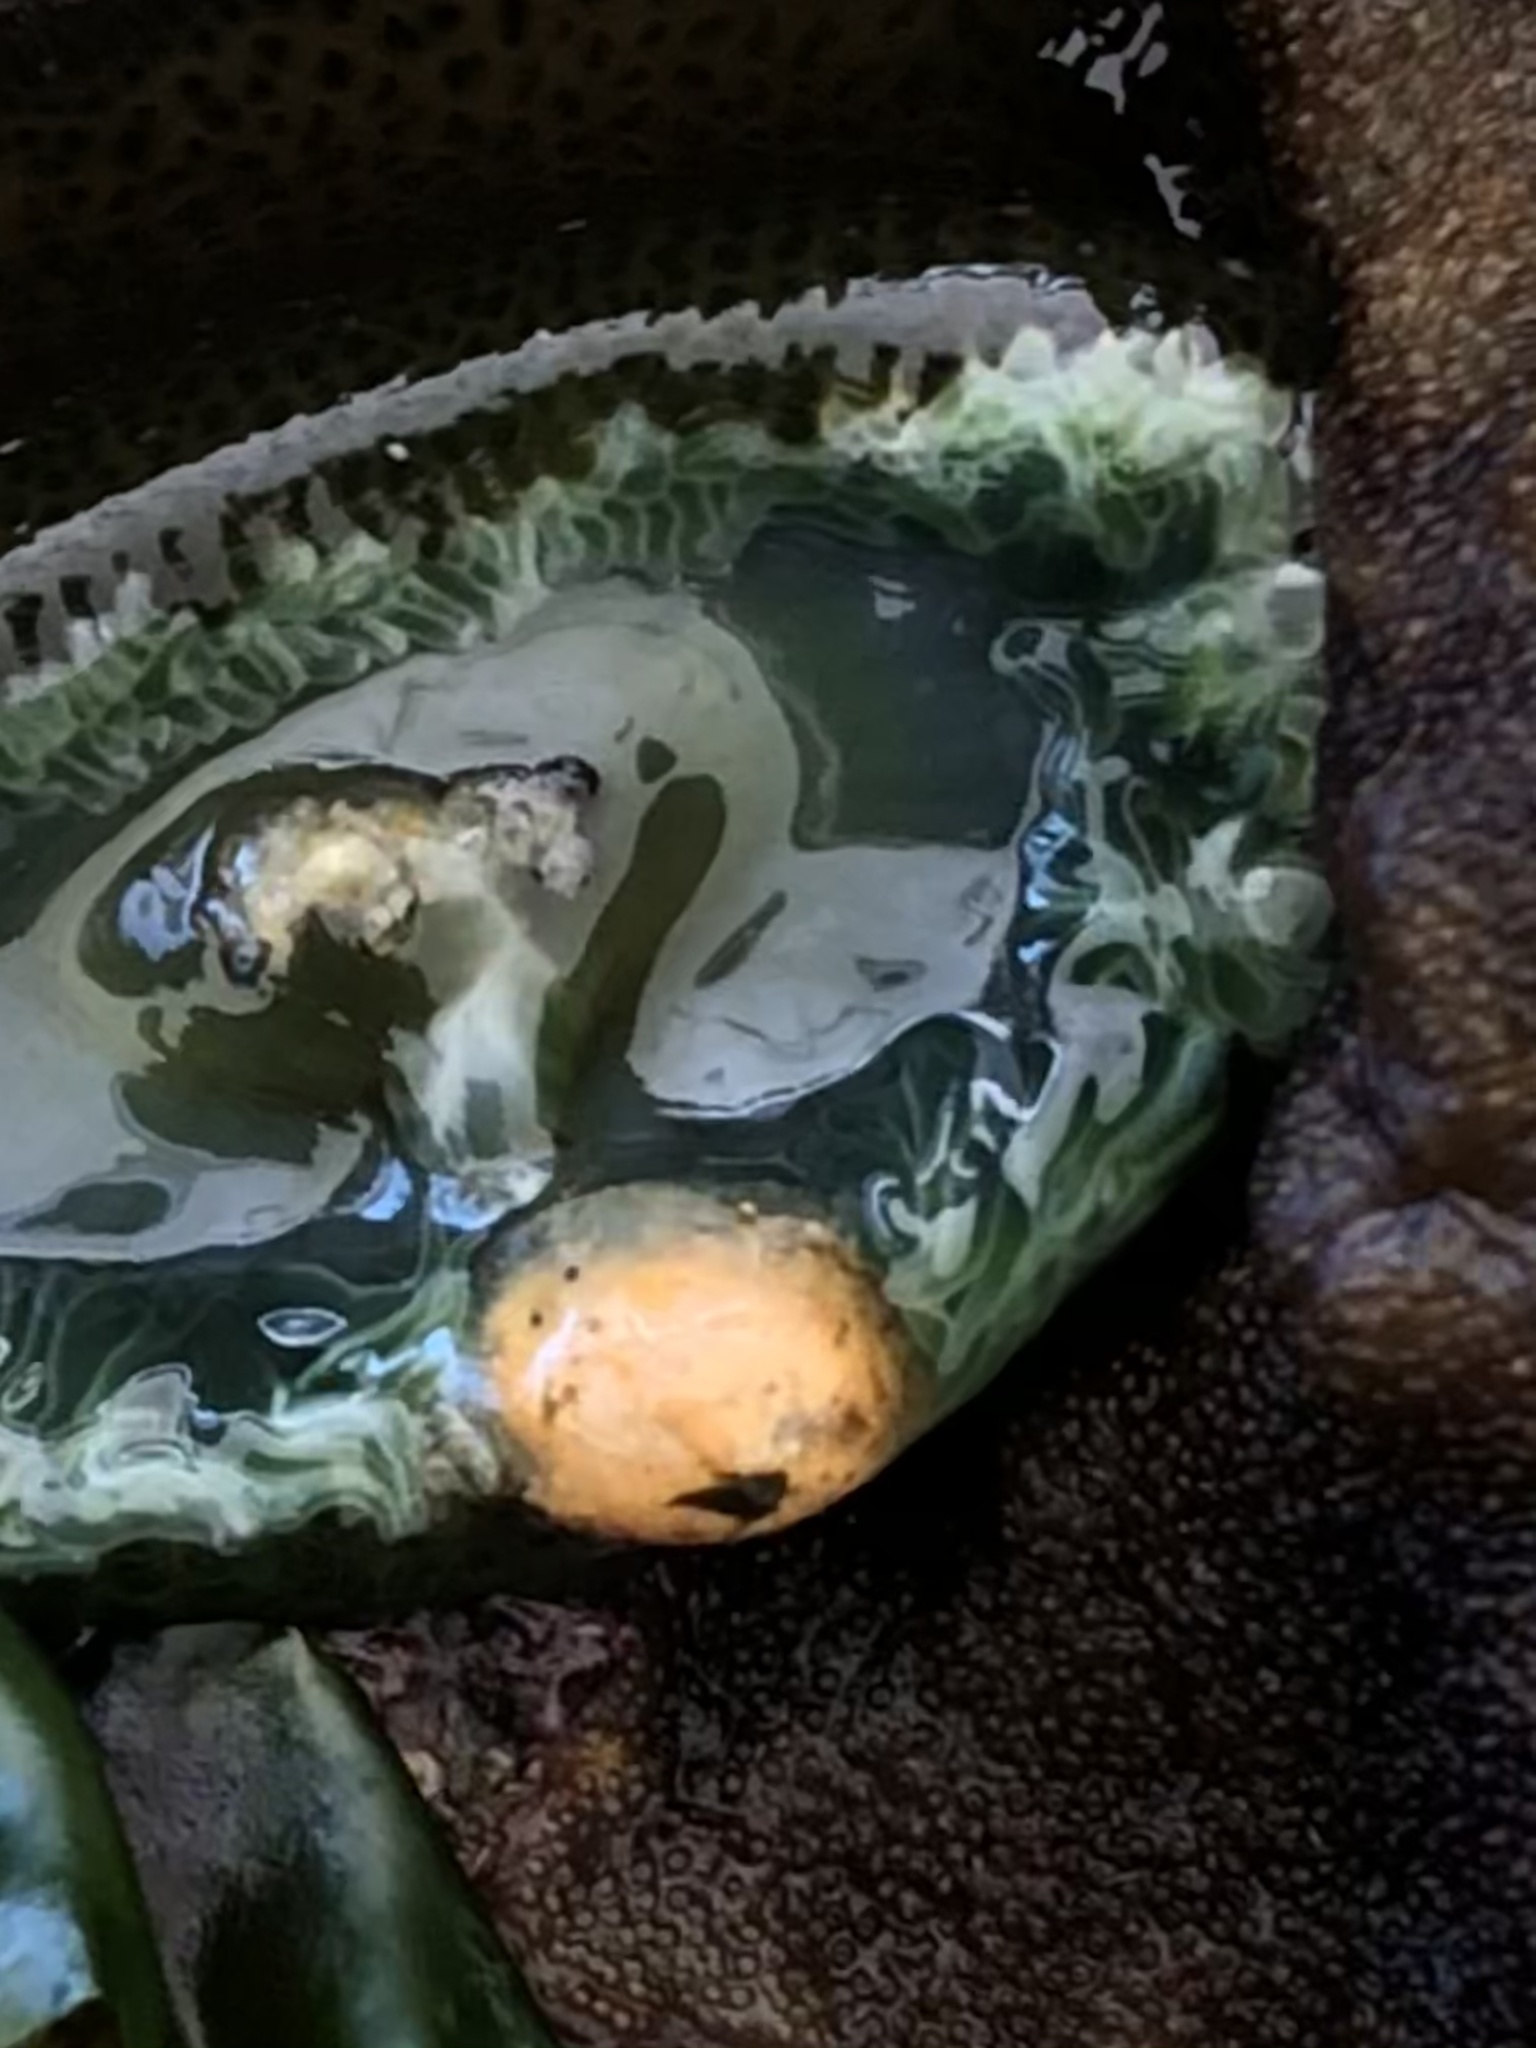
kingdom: Animalia
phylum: Cnidaria
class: Anthozoa
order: Actiniaria
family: Actiniidae
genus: Anthopleura
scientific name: Anthopleura xanthogrammica
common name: Giant green anemone
